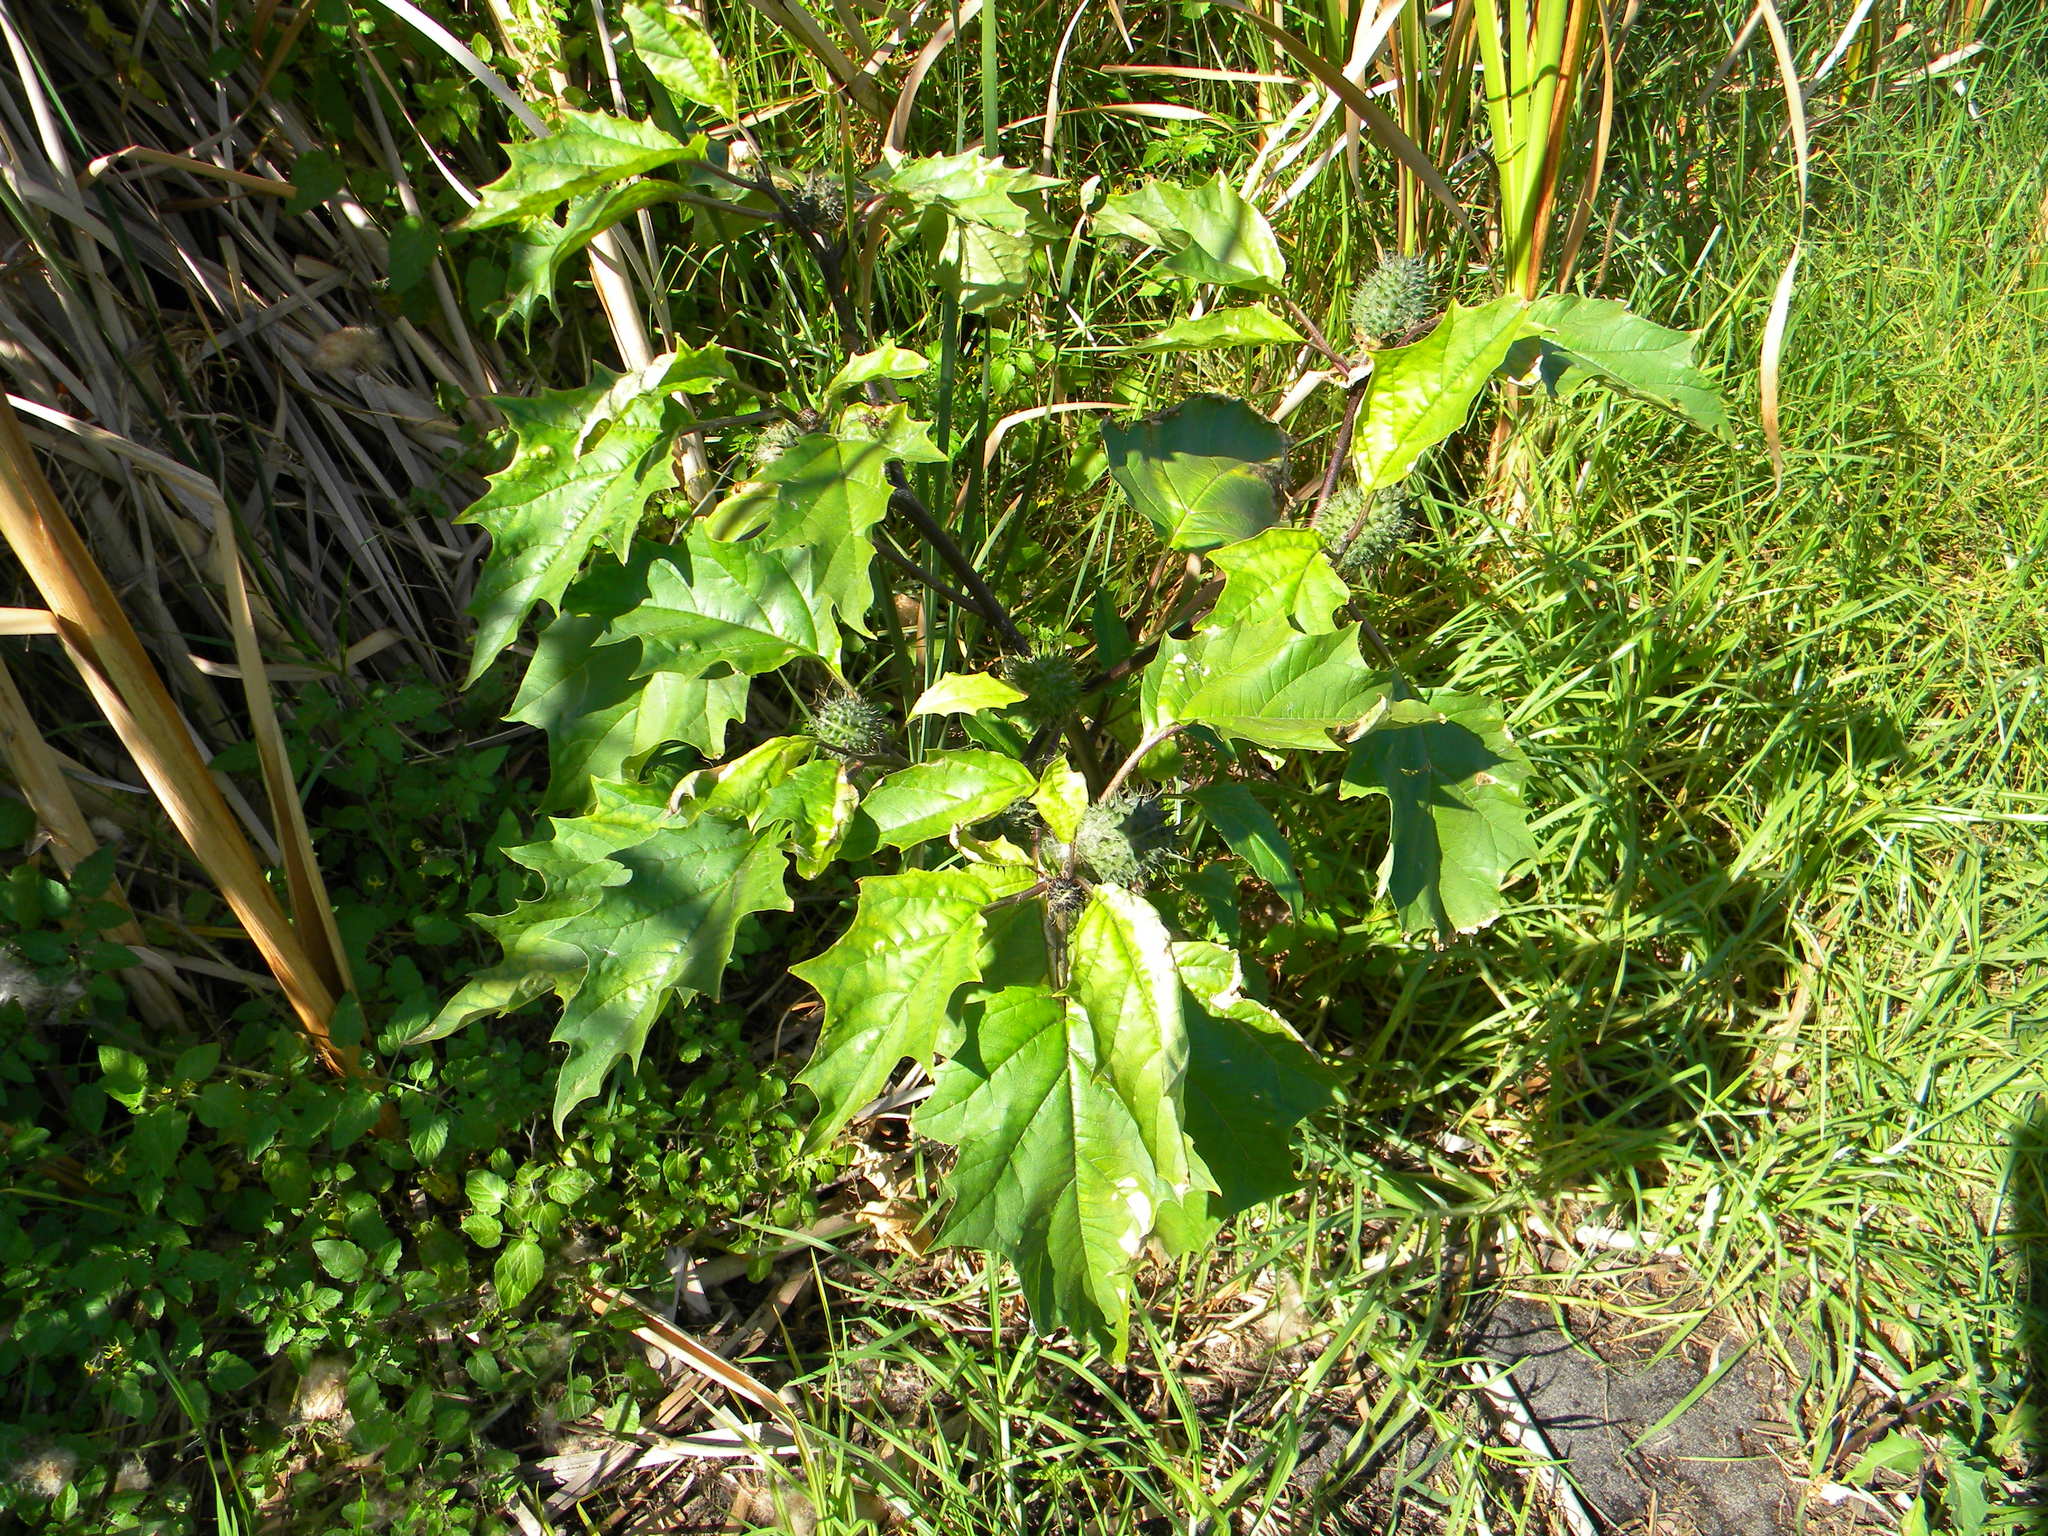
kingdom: Plantae
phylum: Tracheophyta
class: Magnoliopsida
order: Solanales
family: Solanaceae
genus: Datura
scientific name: Datura stramonium
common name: Thorn-apple
